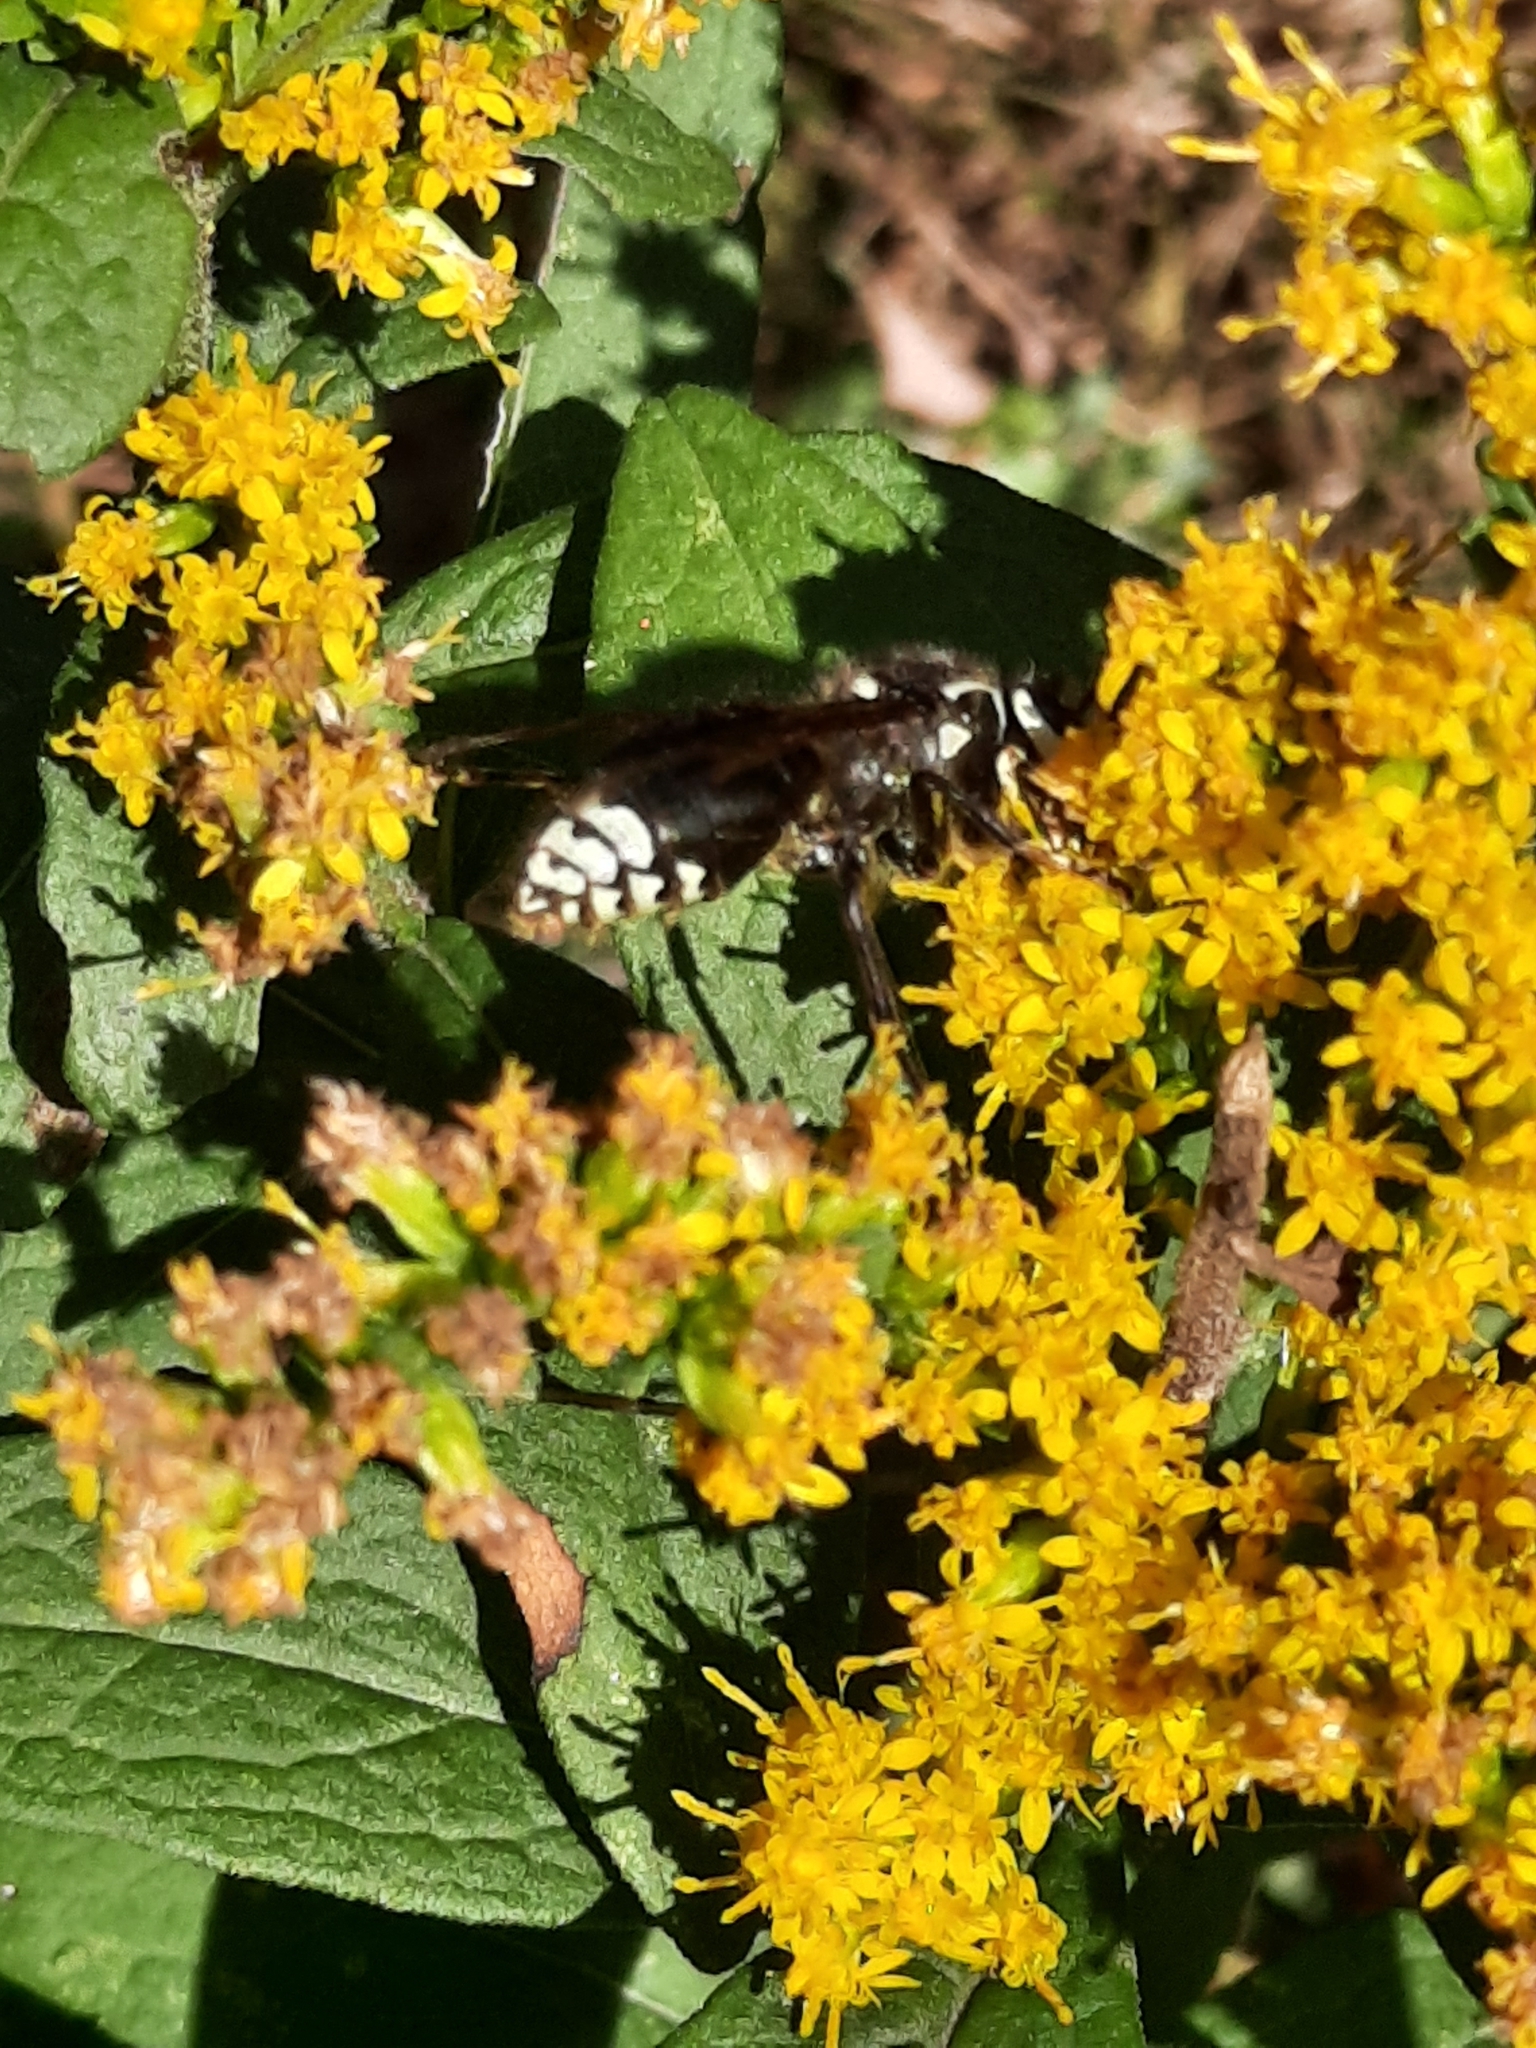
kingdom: Animalia
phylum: Arthropoda
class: Insecta
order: Hymenoptera
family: Vespidae
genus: Dolichovespula
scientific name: Dolichovespula maculata
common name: Bald-faced hornet
